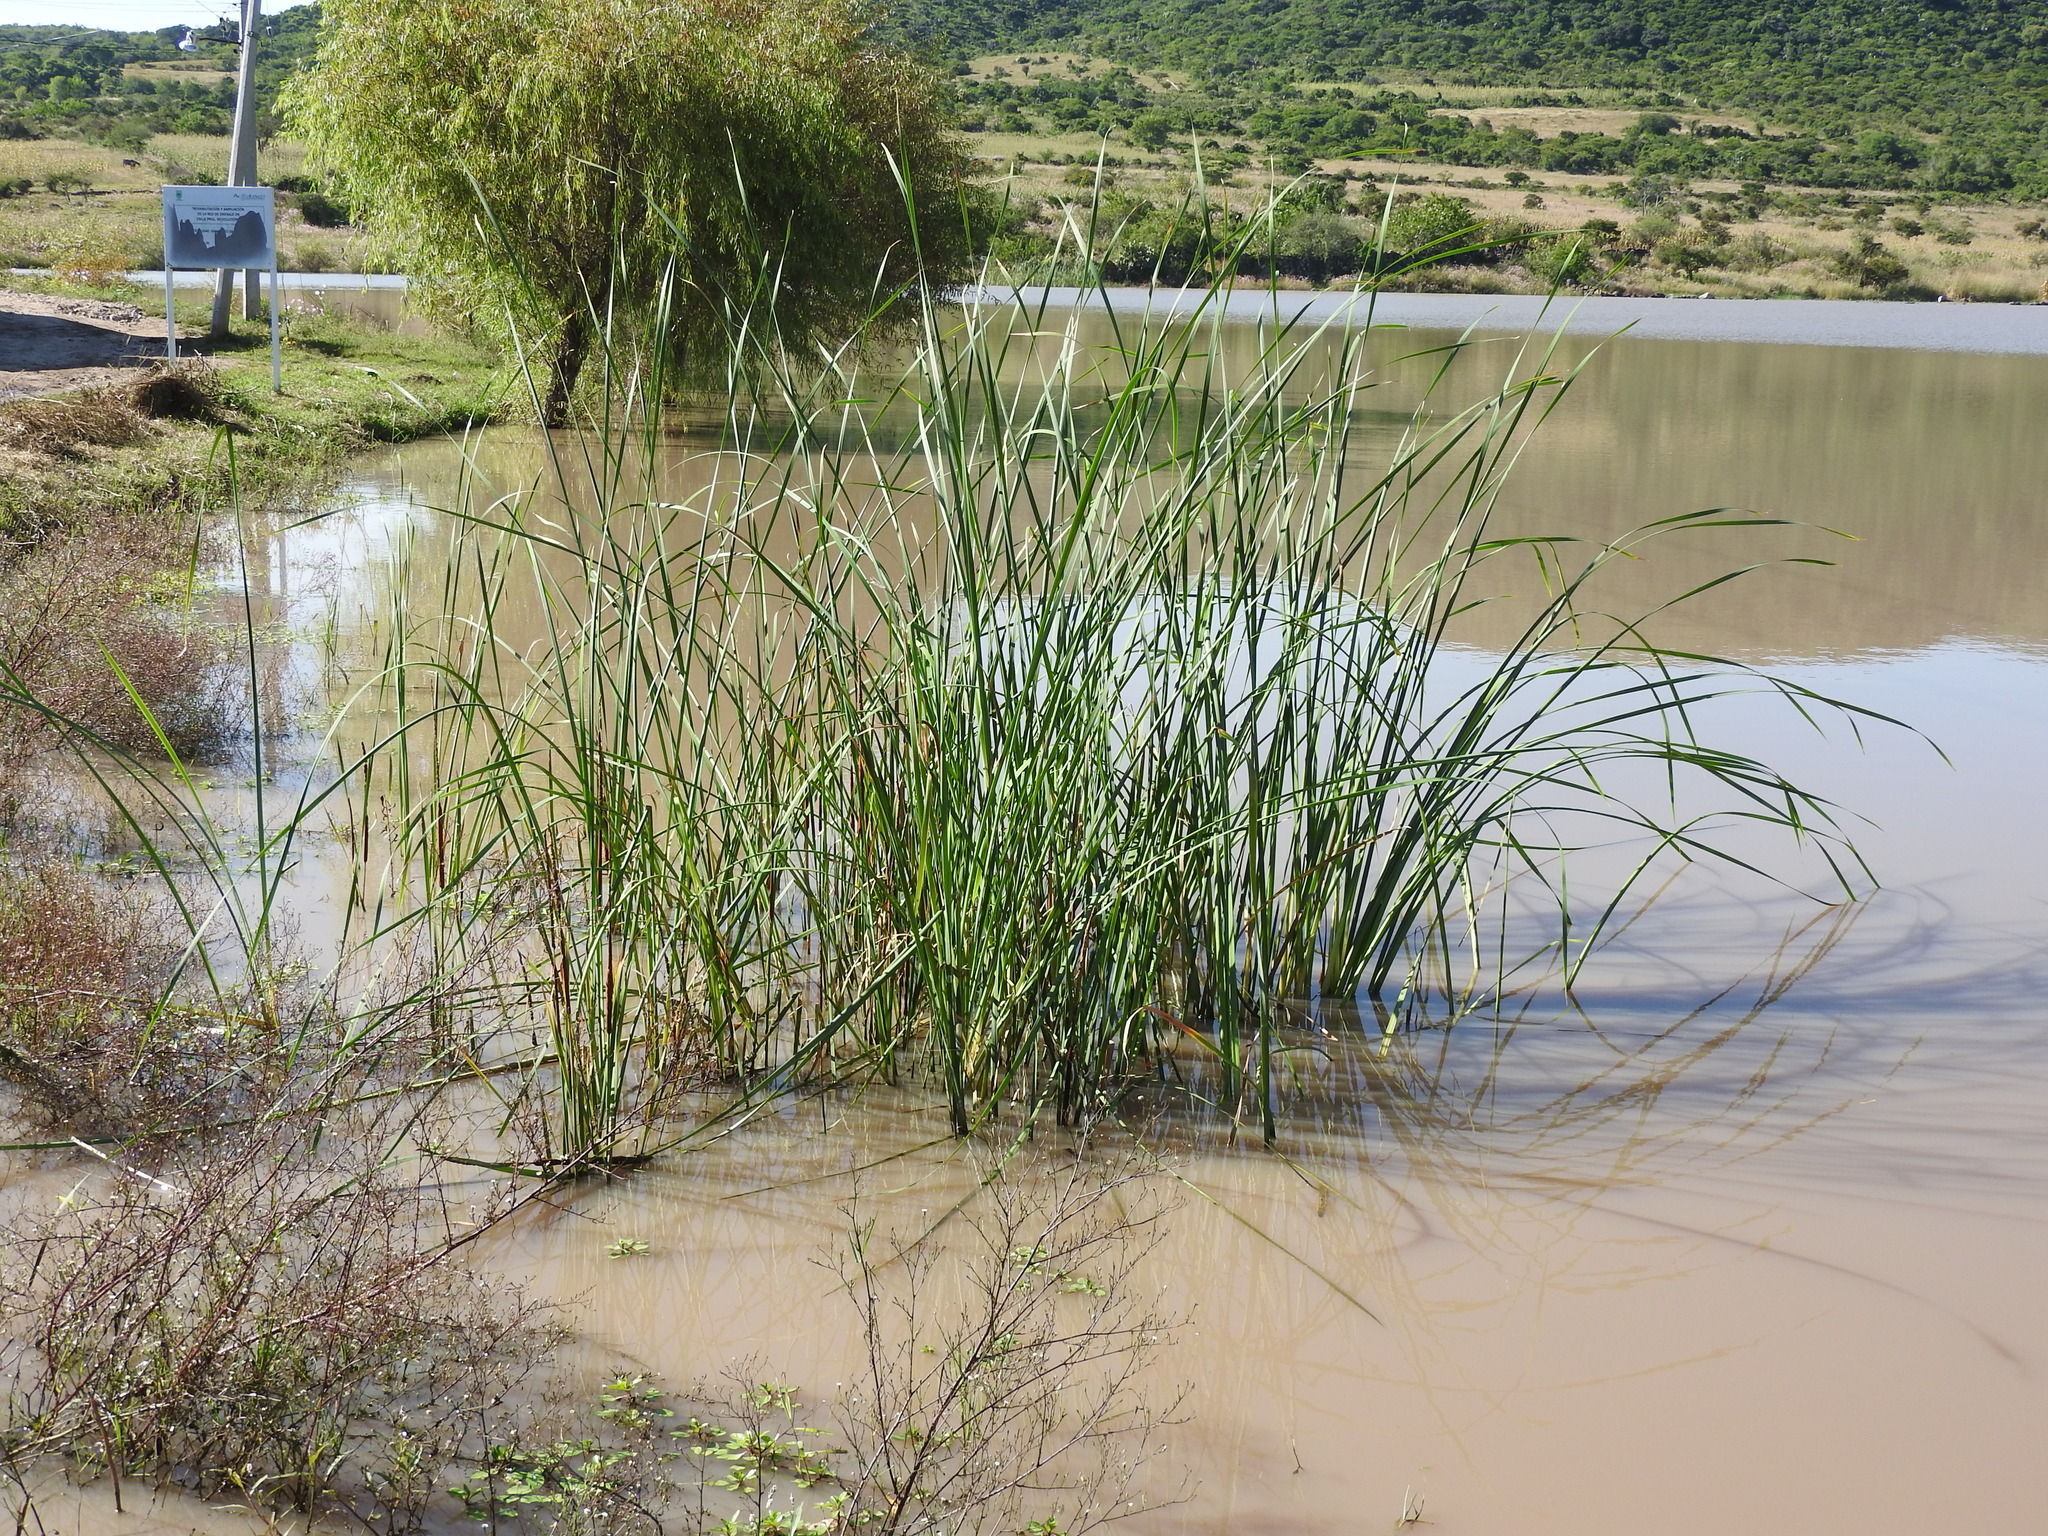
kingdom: Plantae
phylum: Tracheophyta
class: Liliopsida
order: Poales
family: Typhaceae
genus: Typha
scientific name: Typha domingensis
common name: Southern cattail
